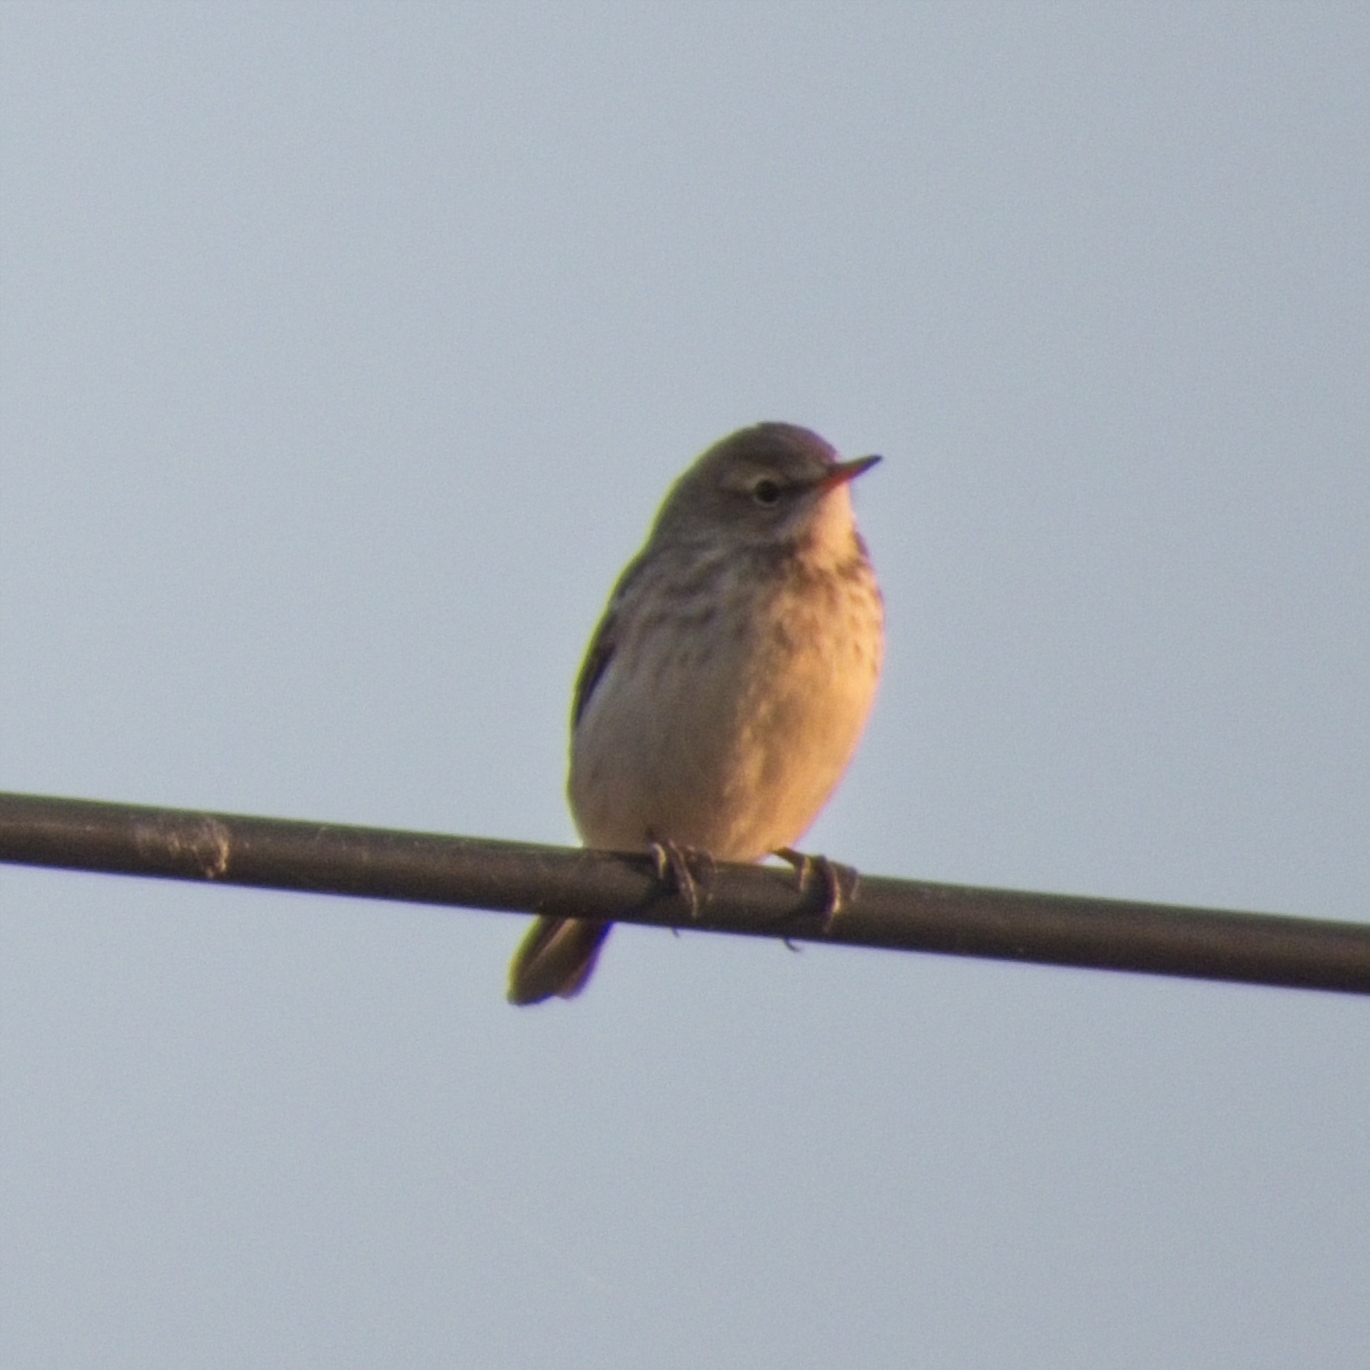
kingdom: Animalia
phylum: Chordata
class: Aves
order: Passeriformes
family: Motacillidae
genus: Anthus
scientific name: Anthus spinoletta
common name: Water pipit
